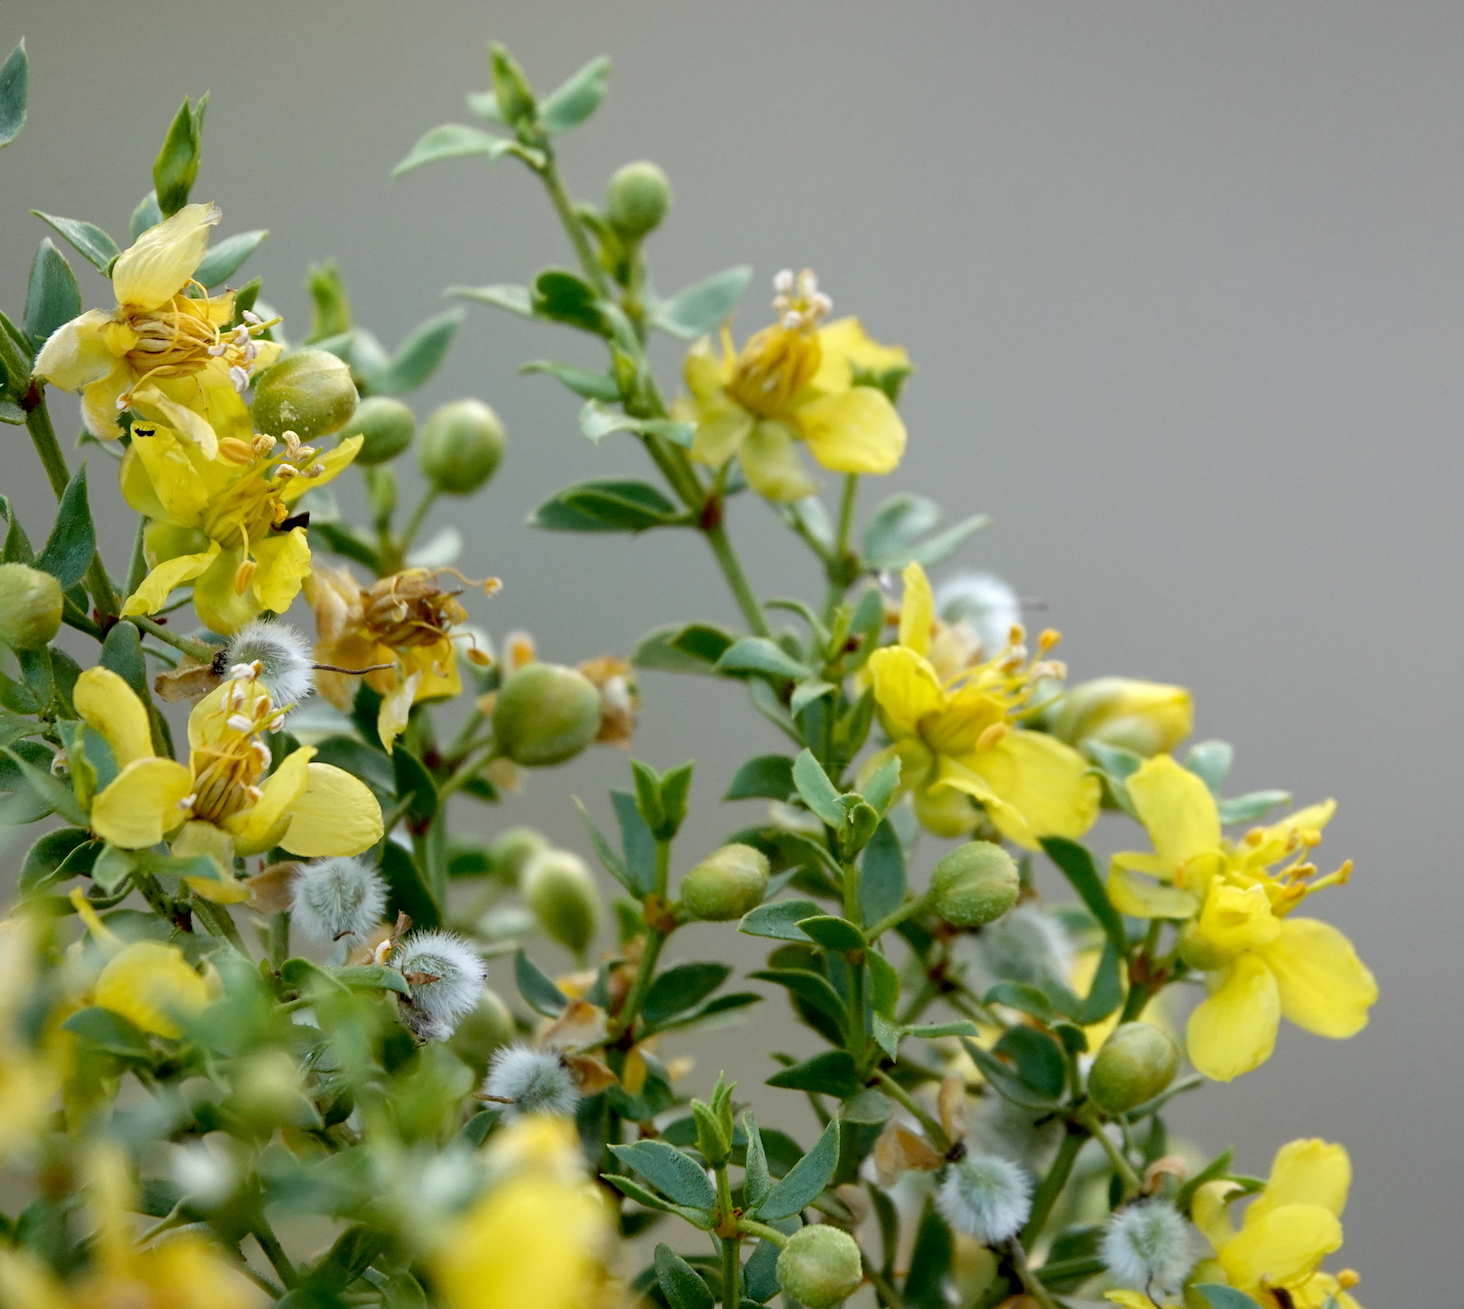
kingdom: Plantae
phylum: Tracheophyta
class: Magnoliopsida
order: Zygophyllales
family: Zygophyllaceae
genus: Larrea
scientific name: Larrea tridentata
